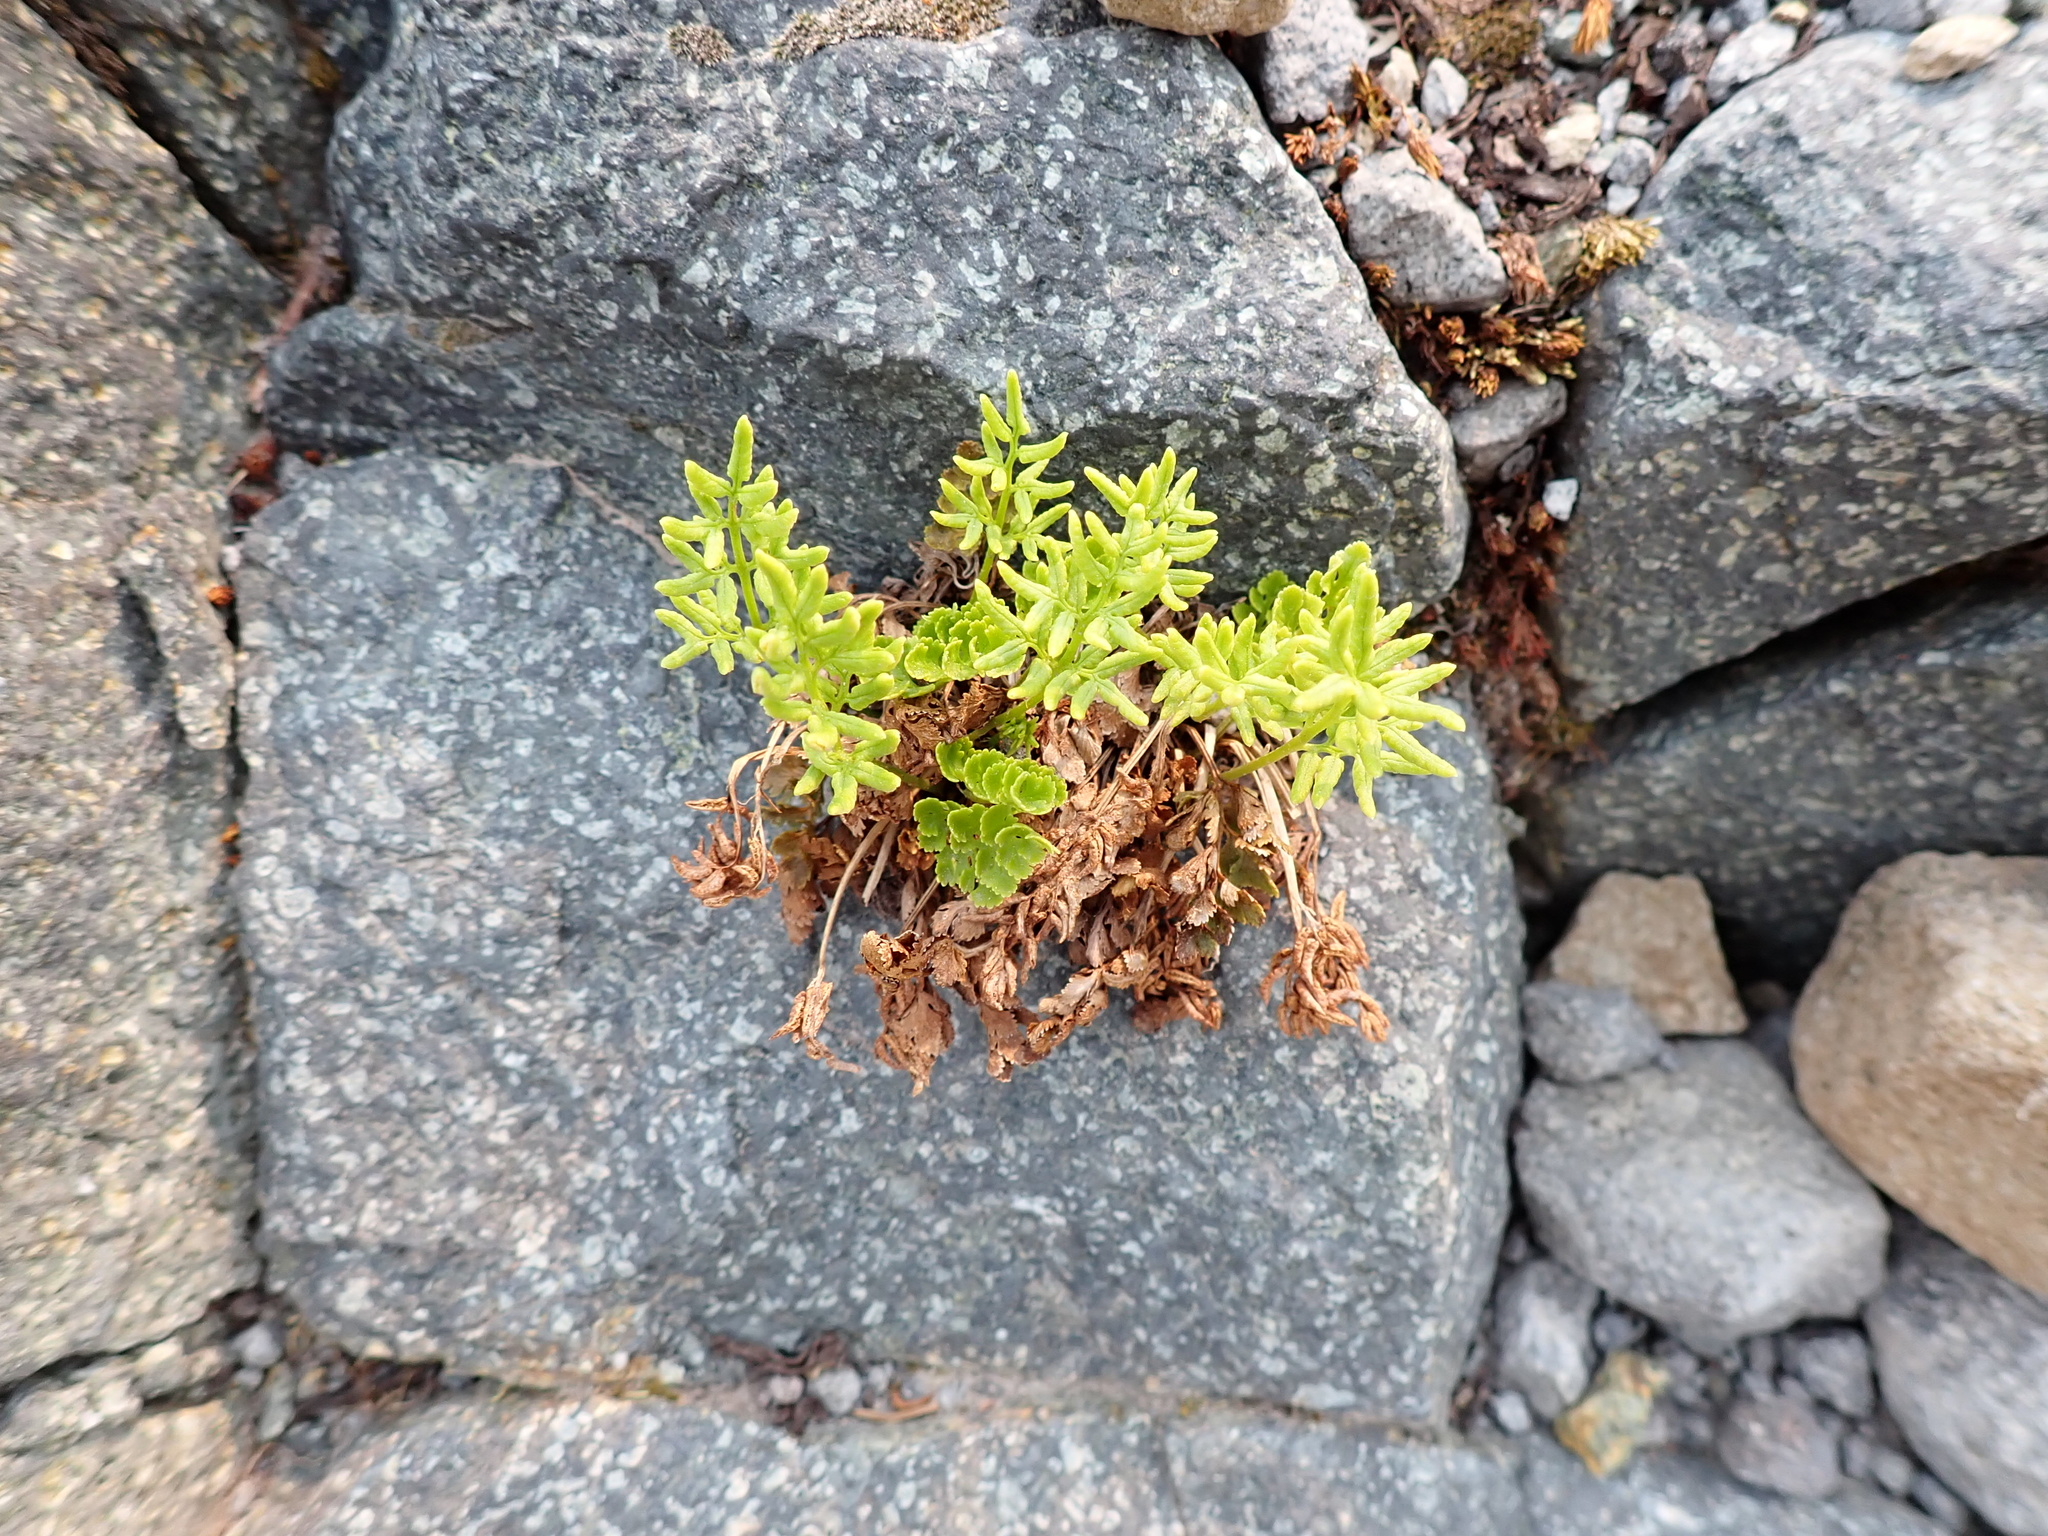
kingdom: Plantae
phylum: Tracheophyta
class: Polypodiopsida
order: Polypodiales
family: Pteridaceae
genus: Cryptogramma
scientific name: Cryptogramma acrostichoides
